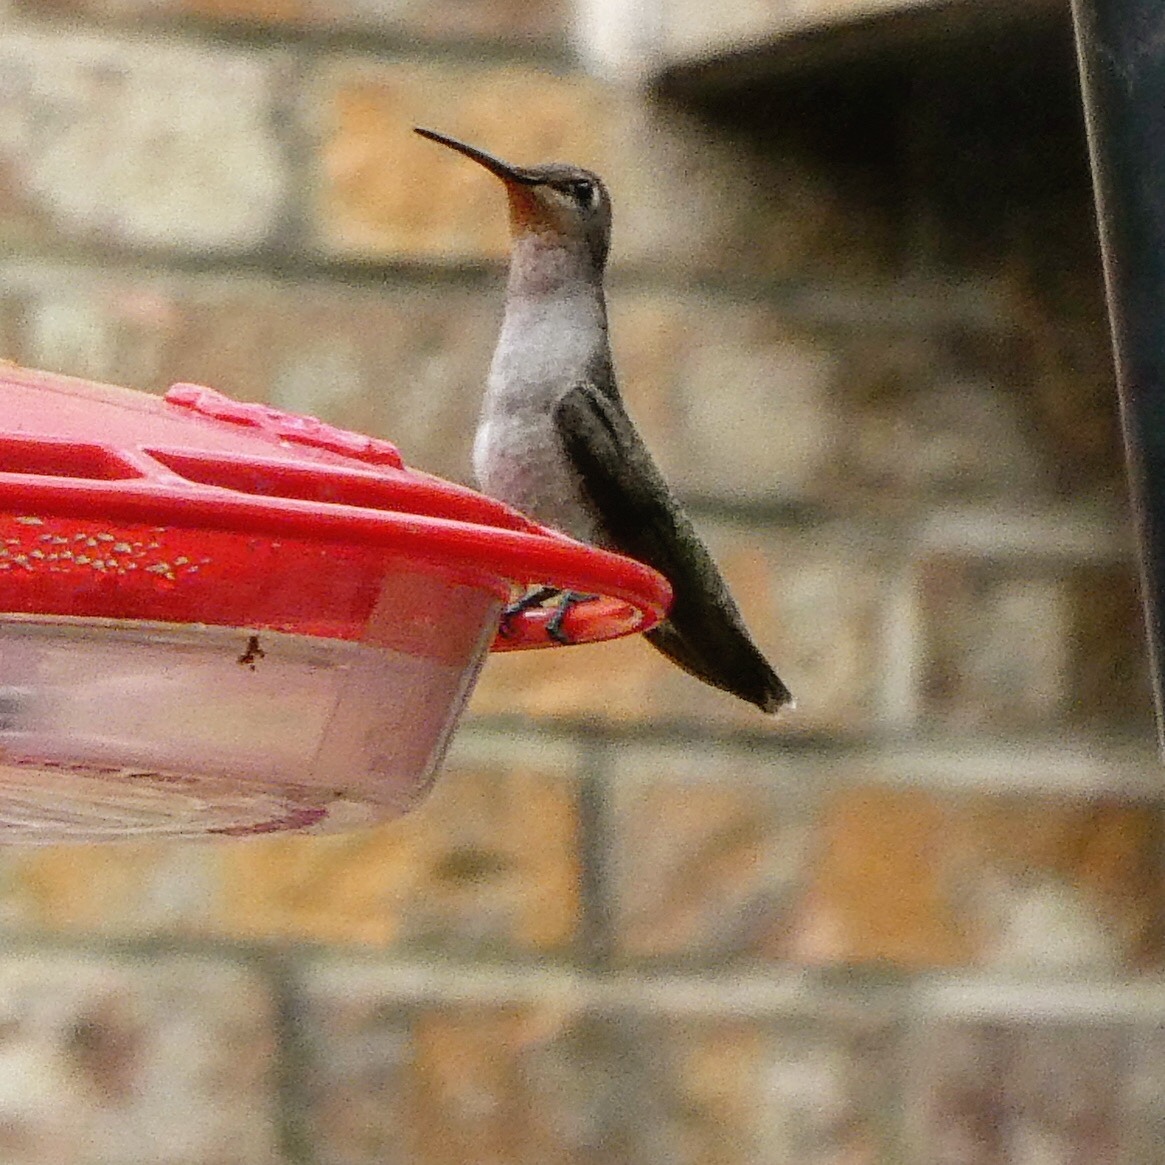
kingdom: Animalia
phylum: Chordata
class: Aves
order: Apodiformes
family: Trochilidae
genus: Archilochus
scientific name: Archilochus colubris
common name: Ruby-throated hummingbird
